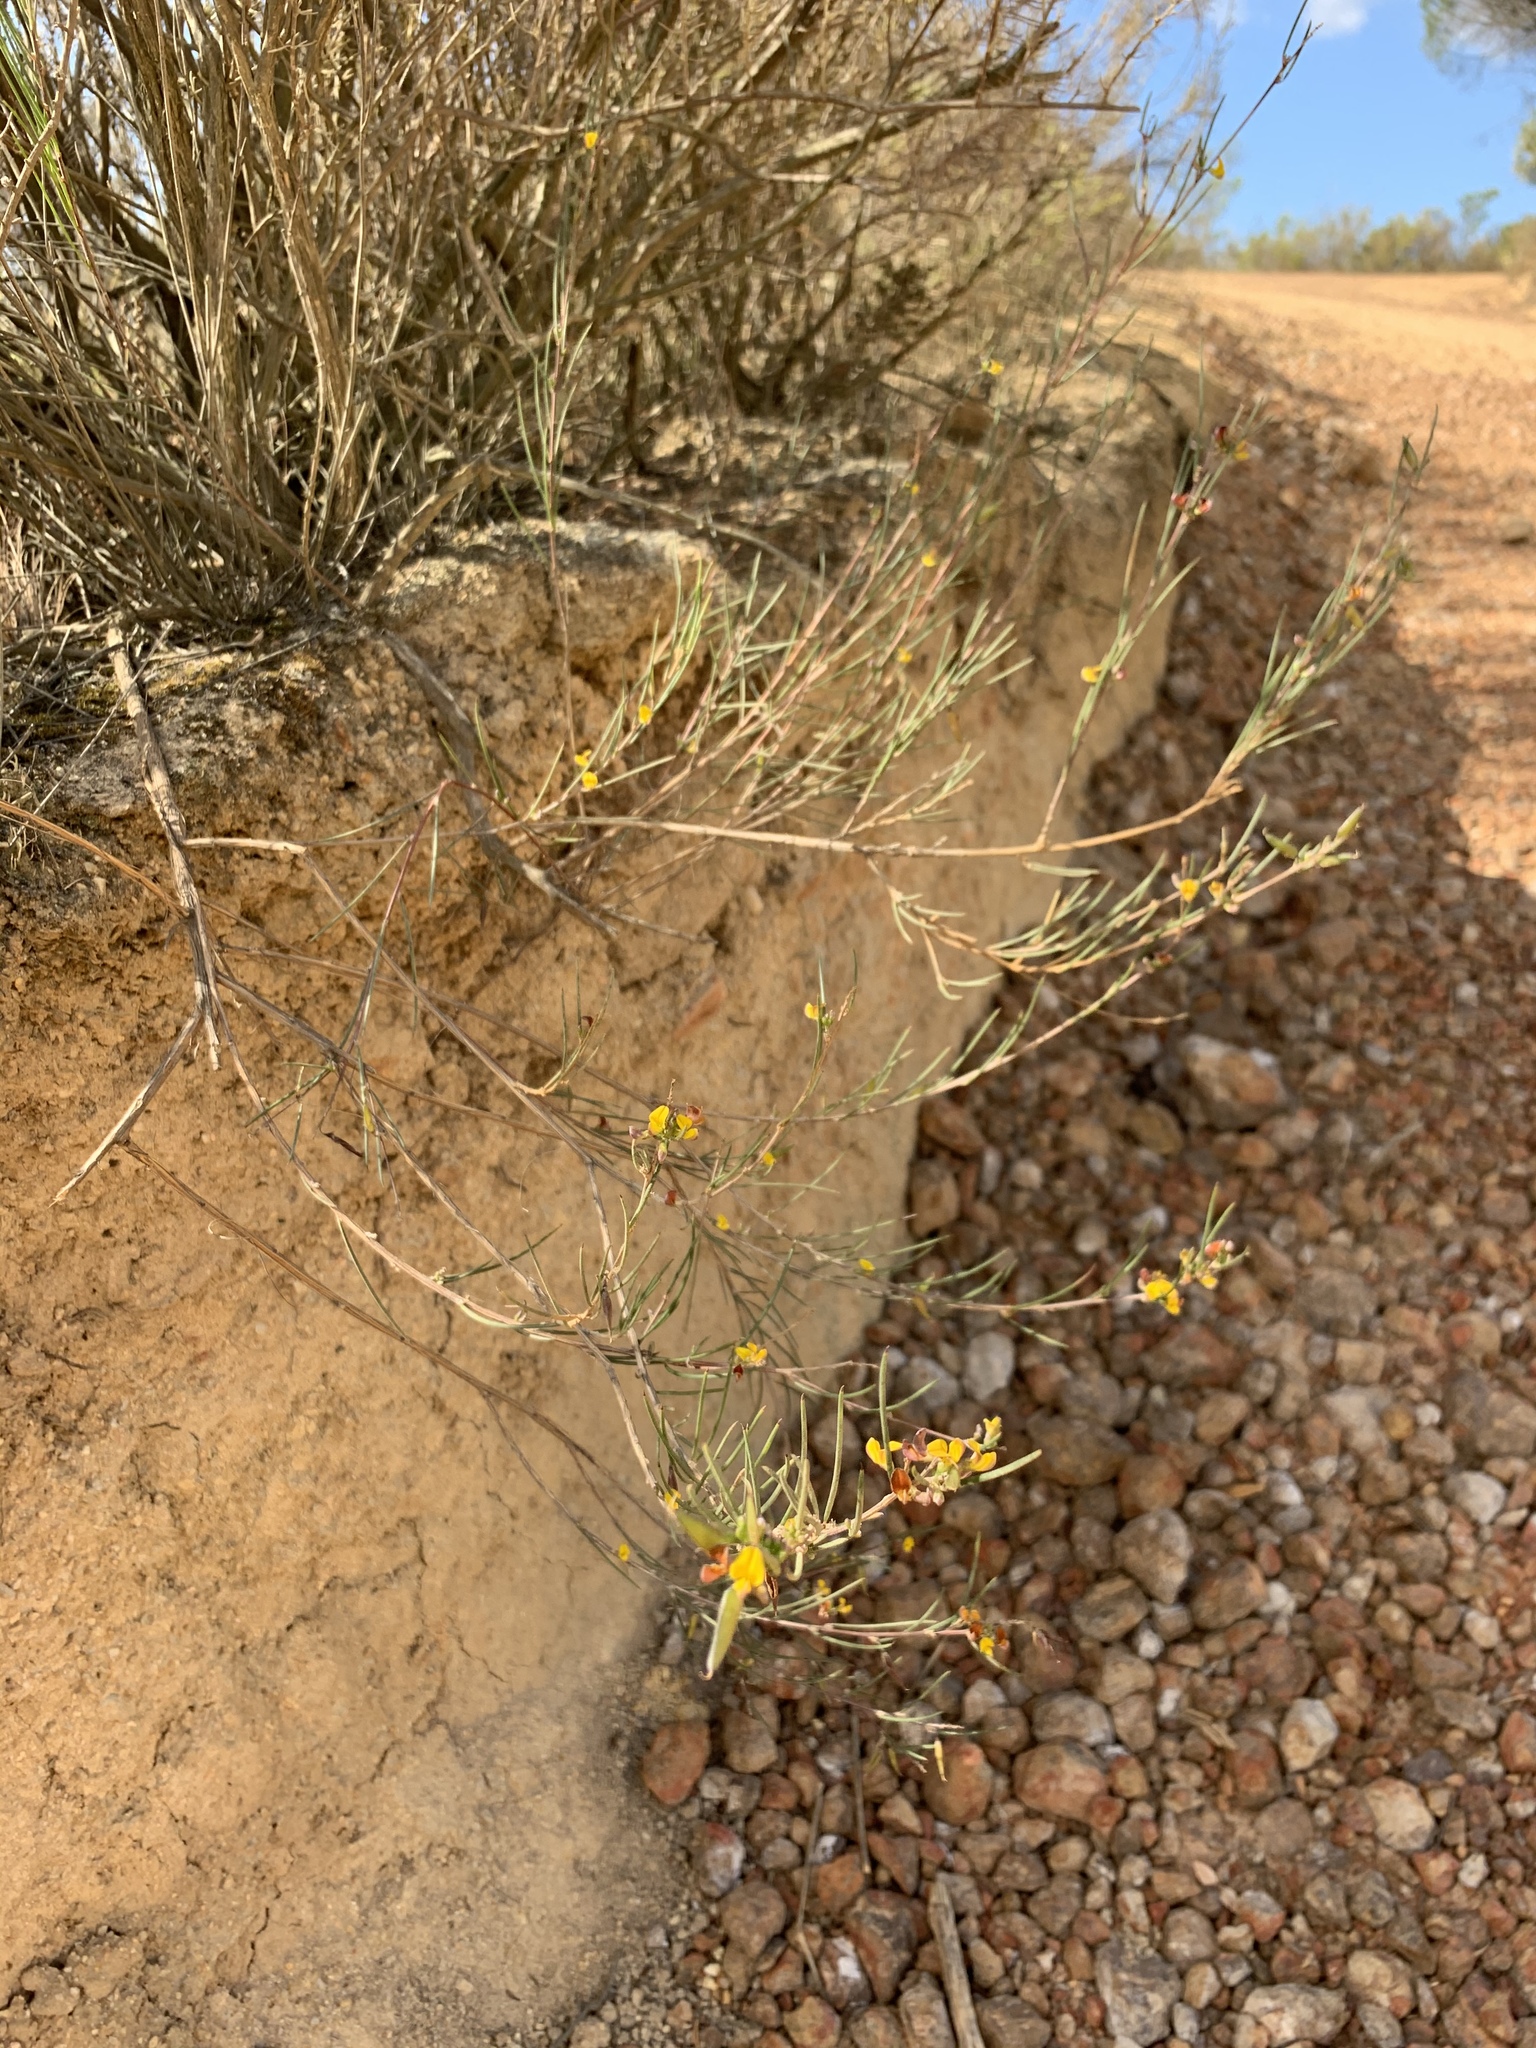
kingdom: Plantae
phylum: Tracheophyta
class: Magnoliopsida
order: Fabales
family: Fabaceae
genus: Aspalathus
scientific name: Aspalathus linearis
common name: Rooibos-tea
